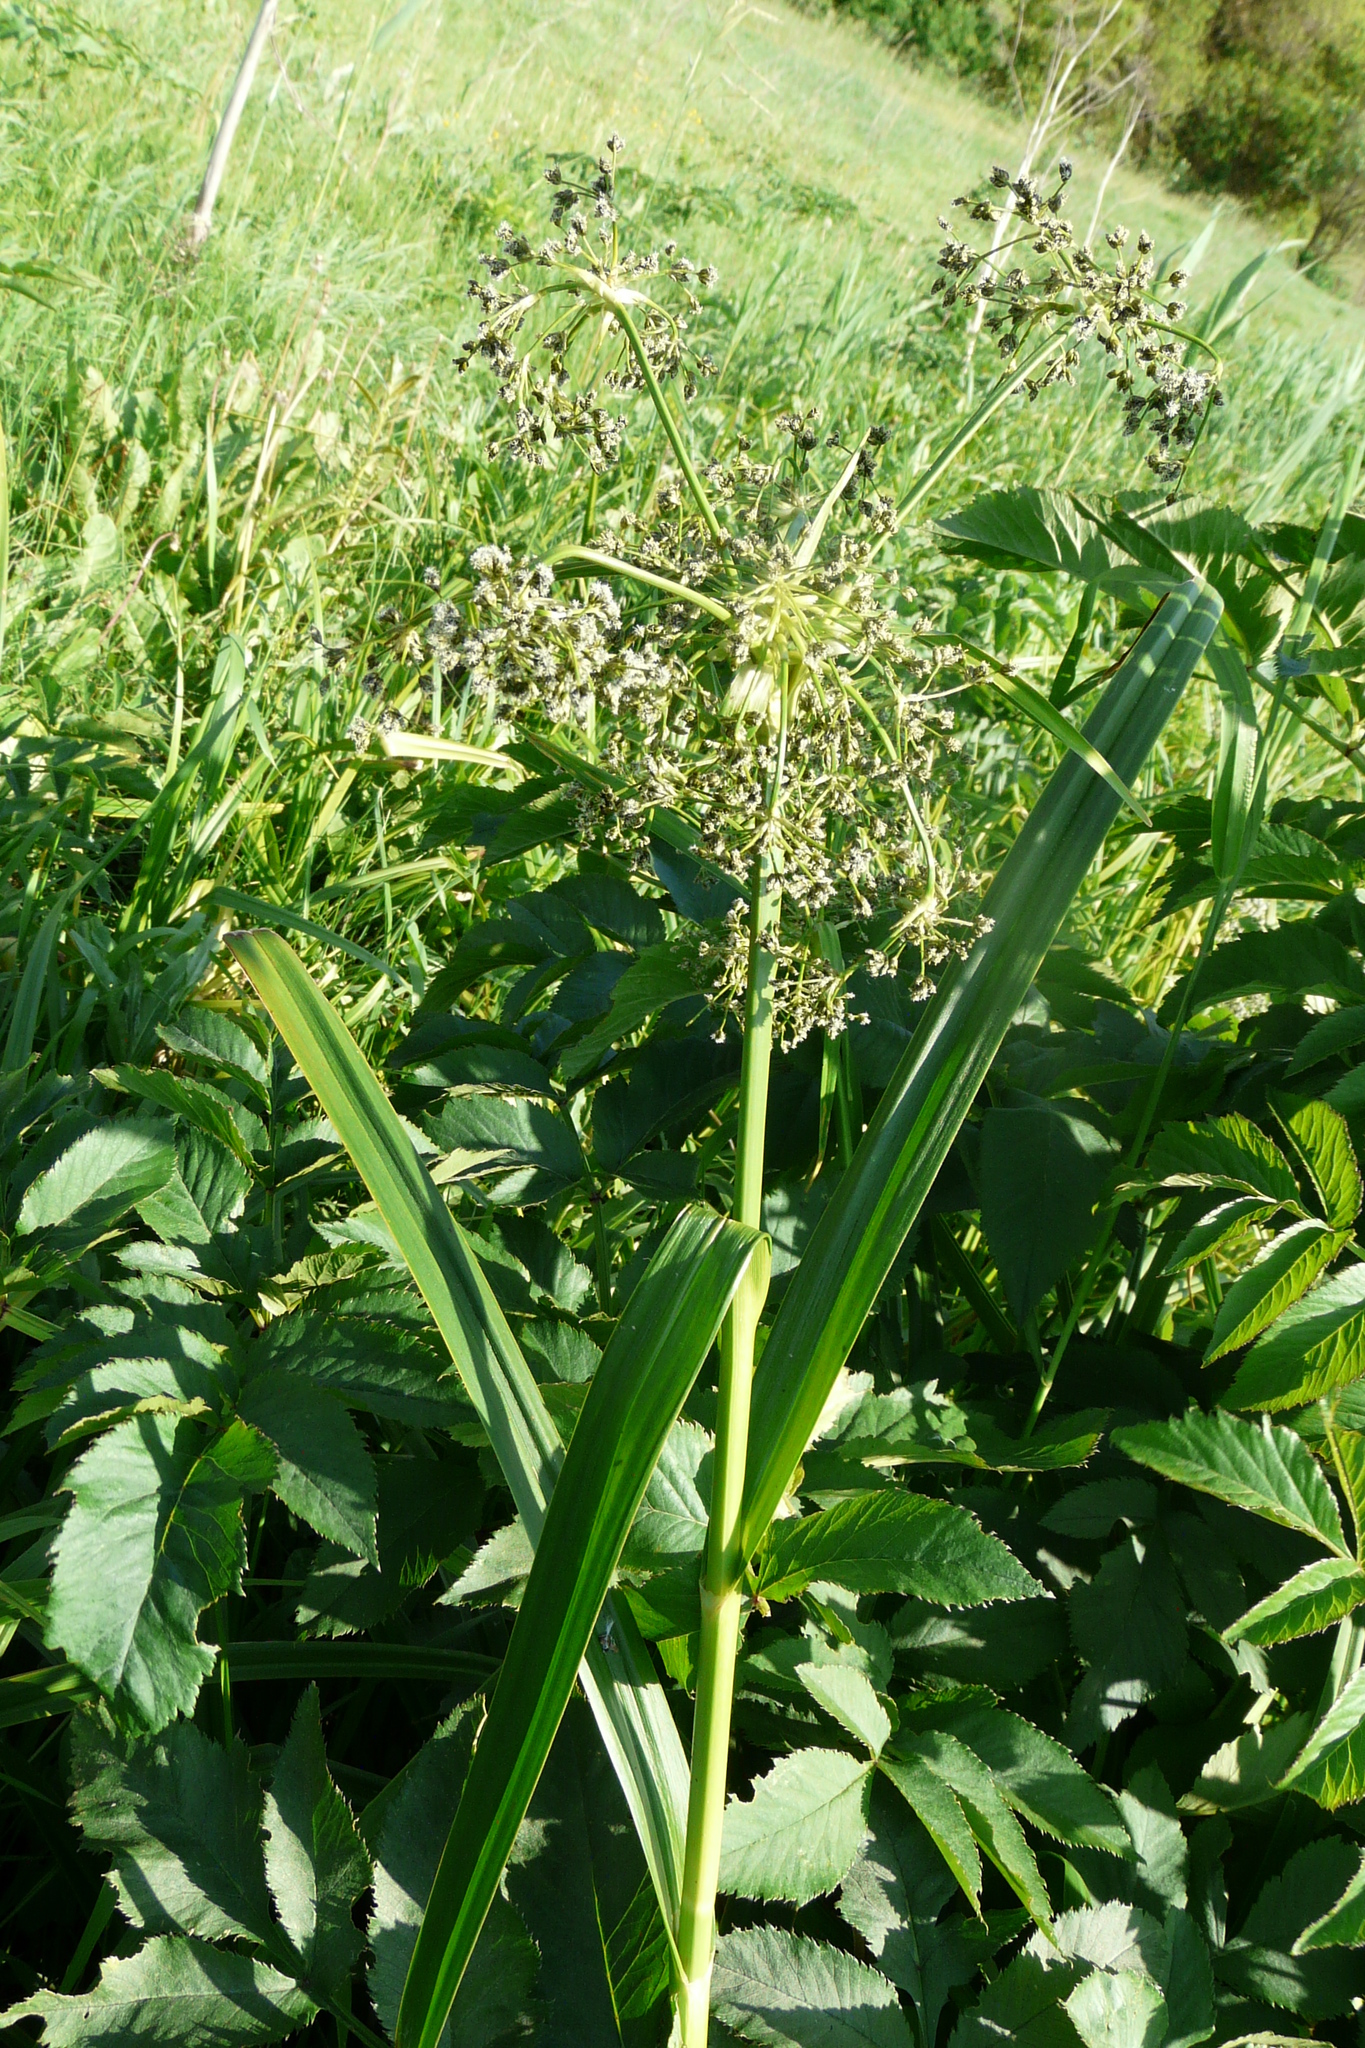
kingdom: Plantae
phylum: Tracheophyta
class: Liliopsida
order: Poales
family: Cyperaceae
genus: Scirpus
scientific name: Scirpus sylvaticus
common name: Wood club-rush
